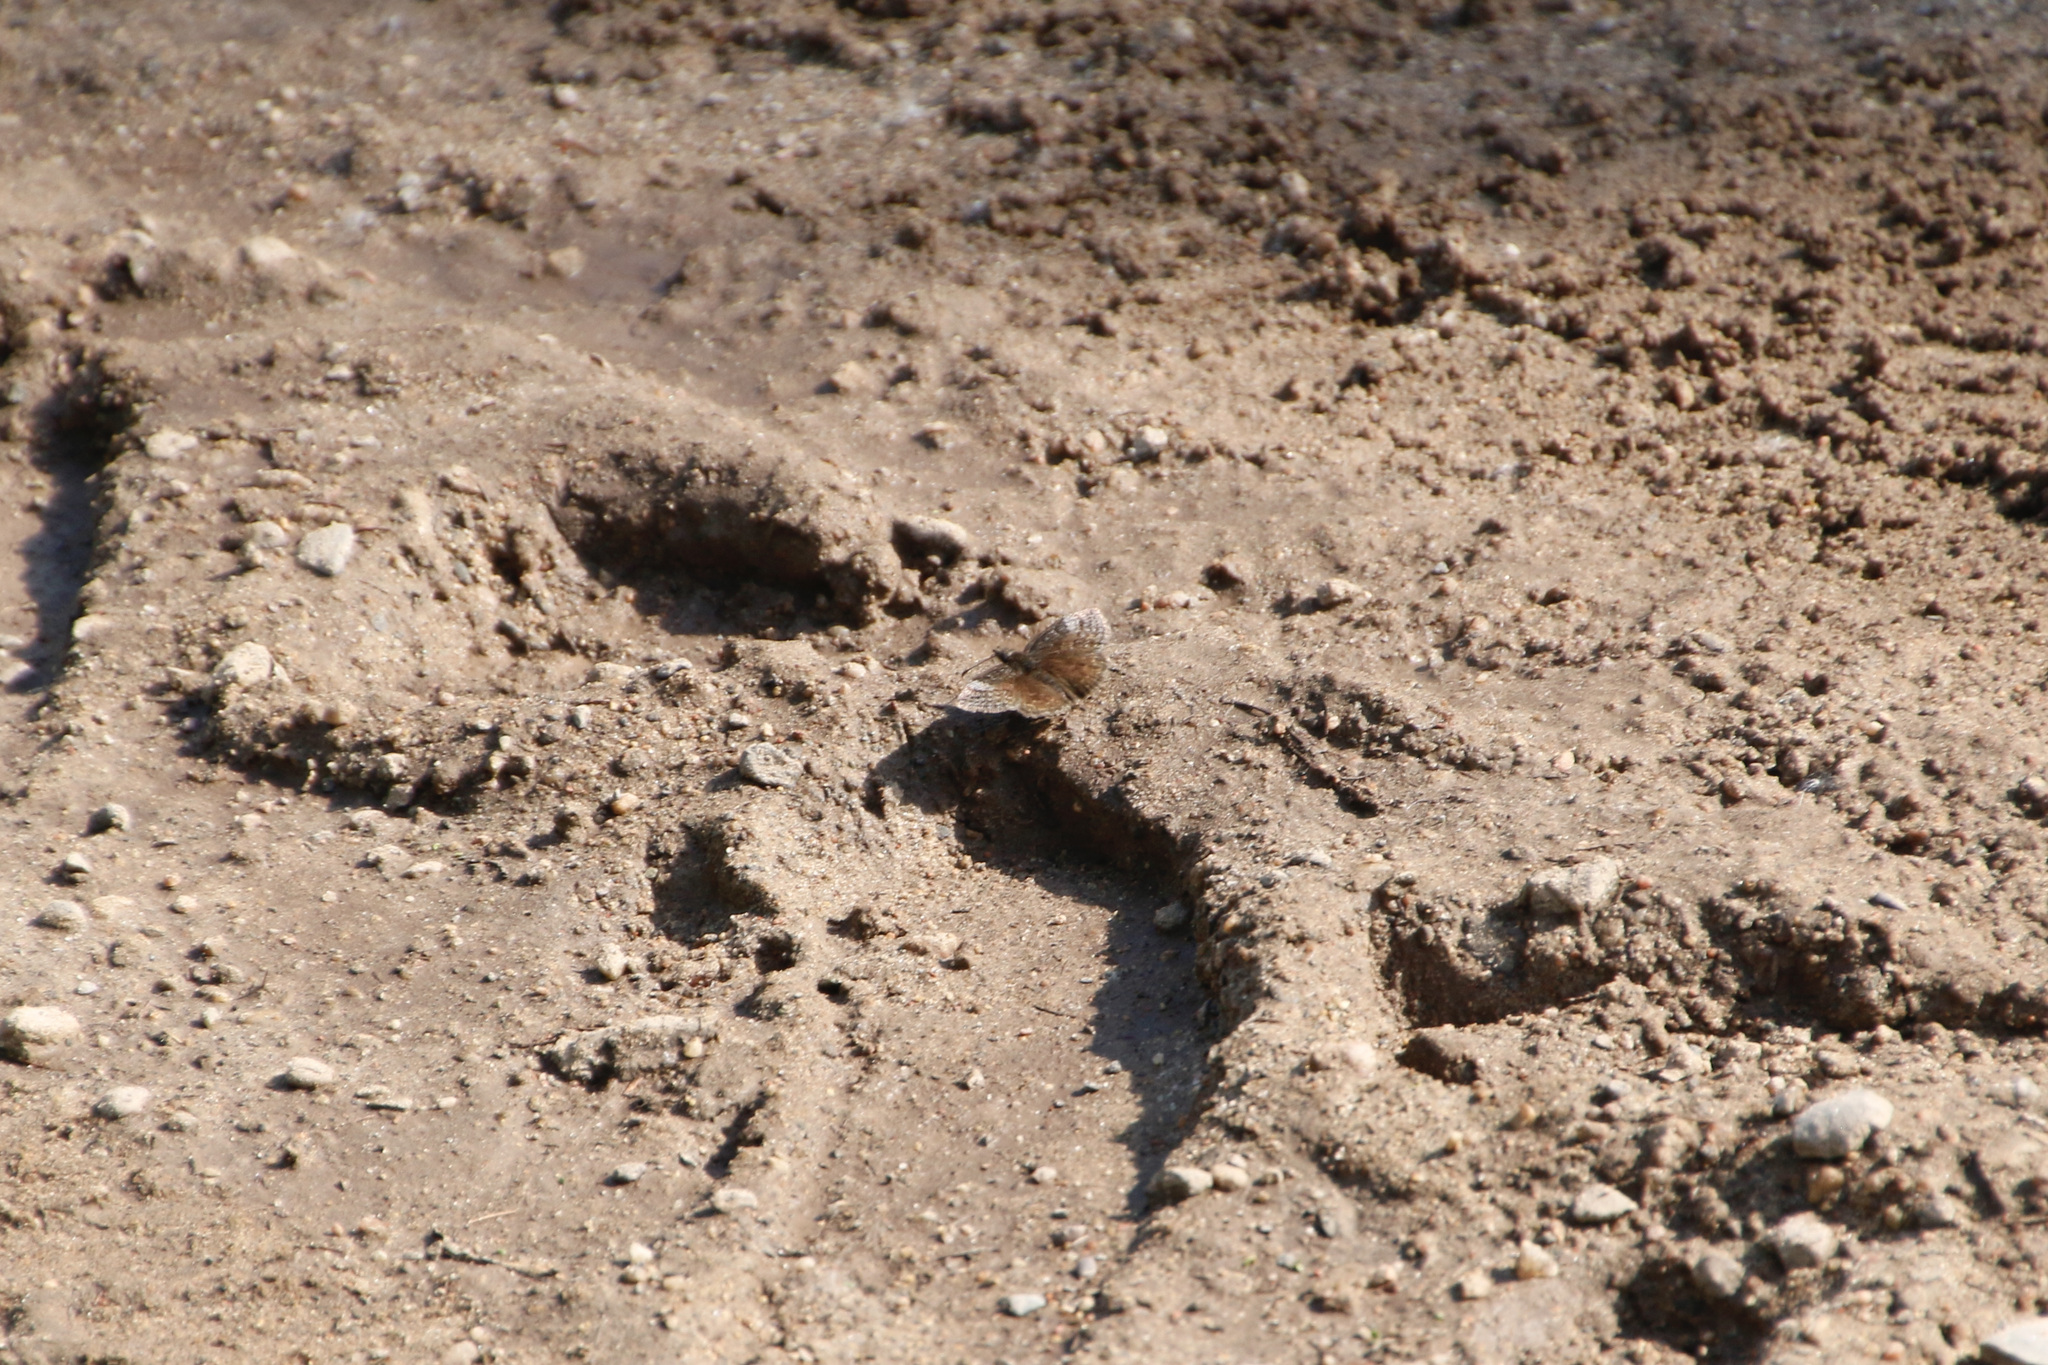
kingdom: Animalia
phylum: Arthropoda
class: Insecta
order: Lepidoptera
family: Hesperiidae
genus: Erynnis
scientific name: Erynnis icelus
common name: Dreamy duskywing
